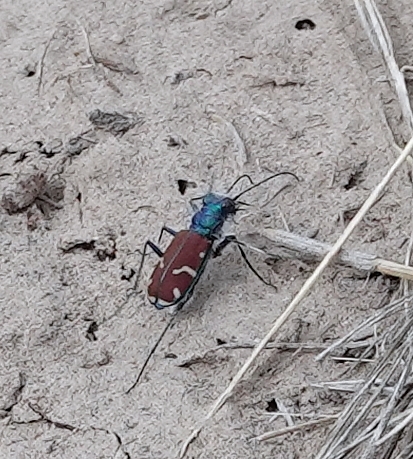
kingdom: Animalia
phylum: Arthropoda
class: Insecta
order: Coleoptera
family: Carabidae
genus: Cicindela
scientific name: Cicindela splendida
